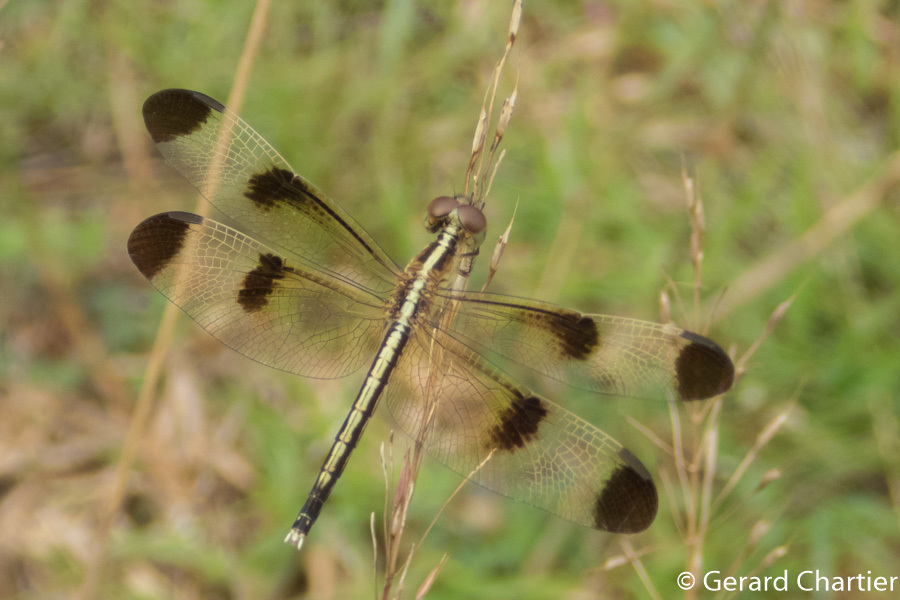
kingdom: Animalia
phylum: Arthropoda
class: Insecta
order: Odonata
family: Libellulidae
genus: Neurothemis
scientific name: Neurothemis tullia
